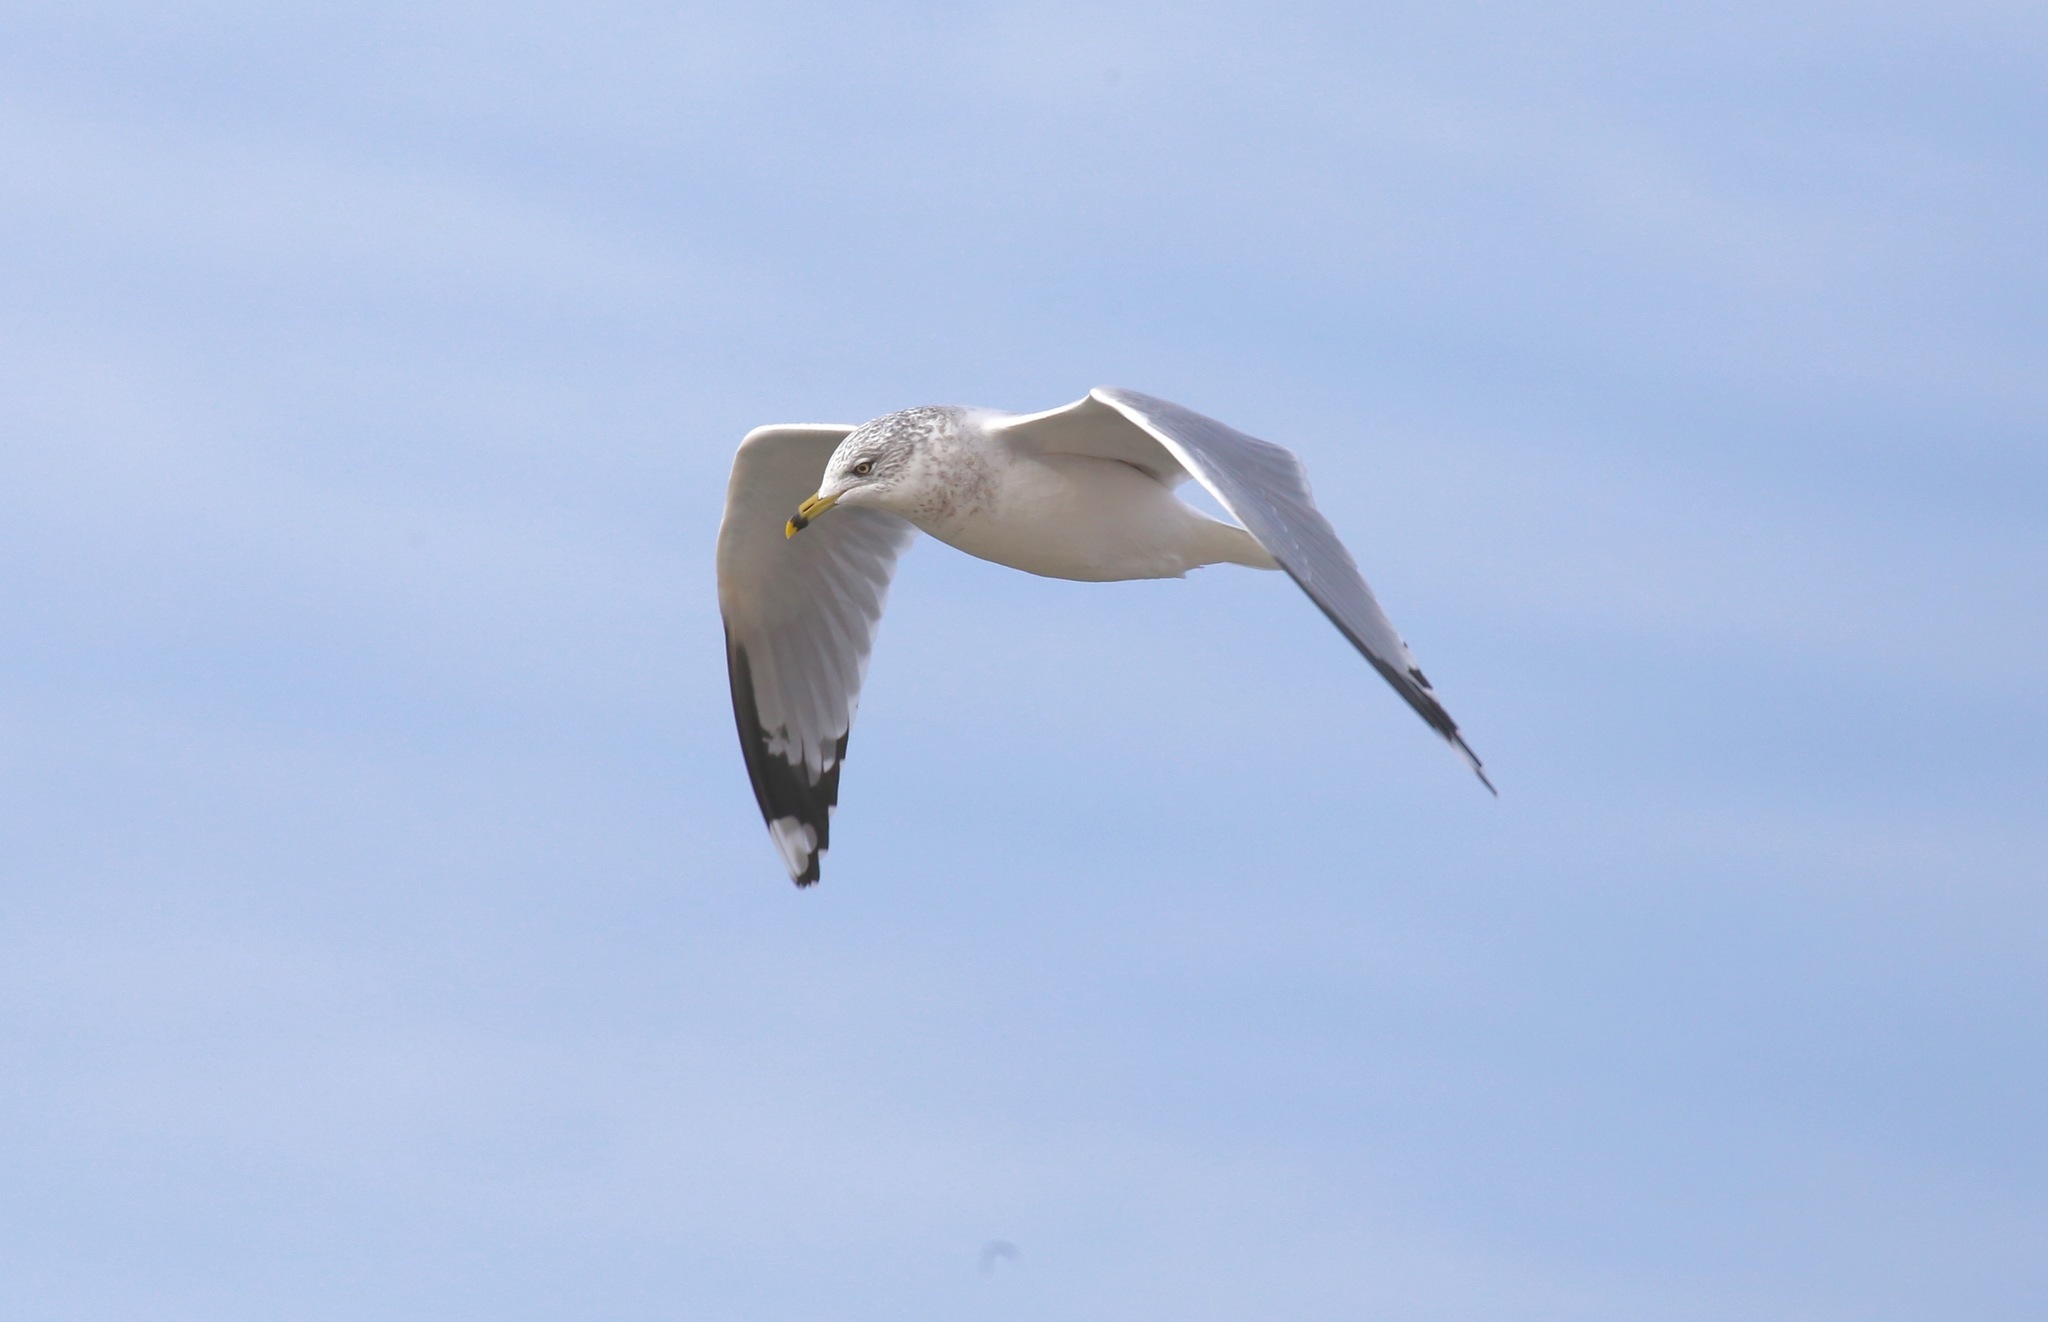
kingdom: Animalia
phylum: Chordata
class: Aves
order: Charadriiformes
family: Laridae
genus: Larus
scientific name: Larus delawarensis
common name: Ring-billed gull
